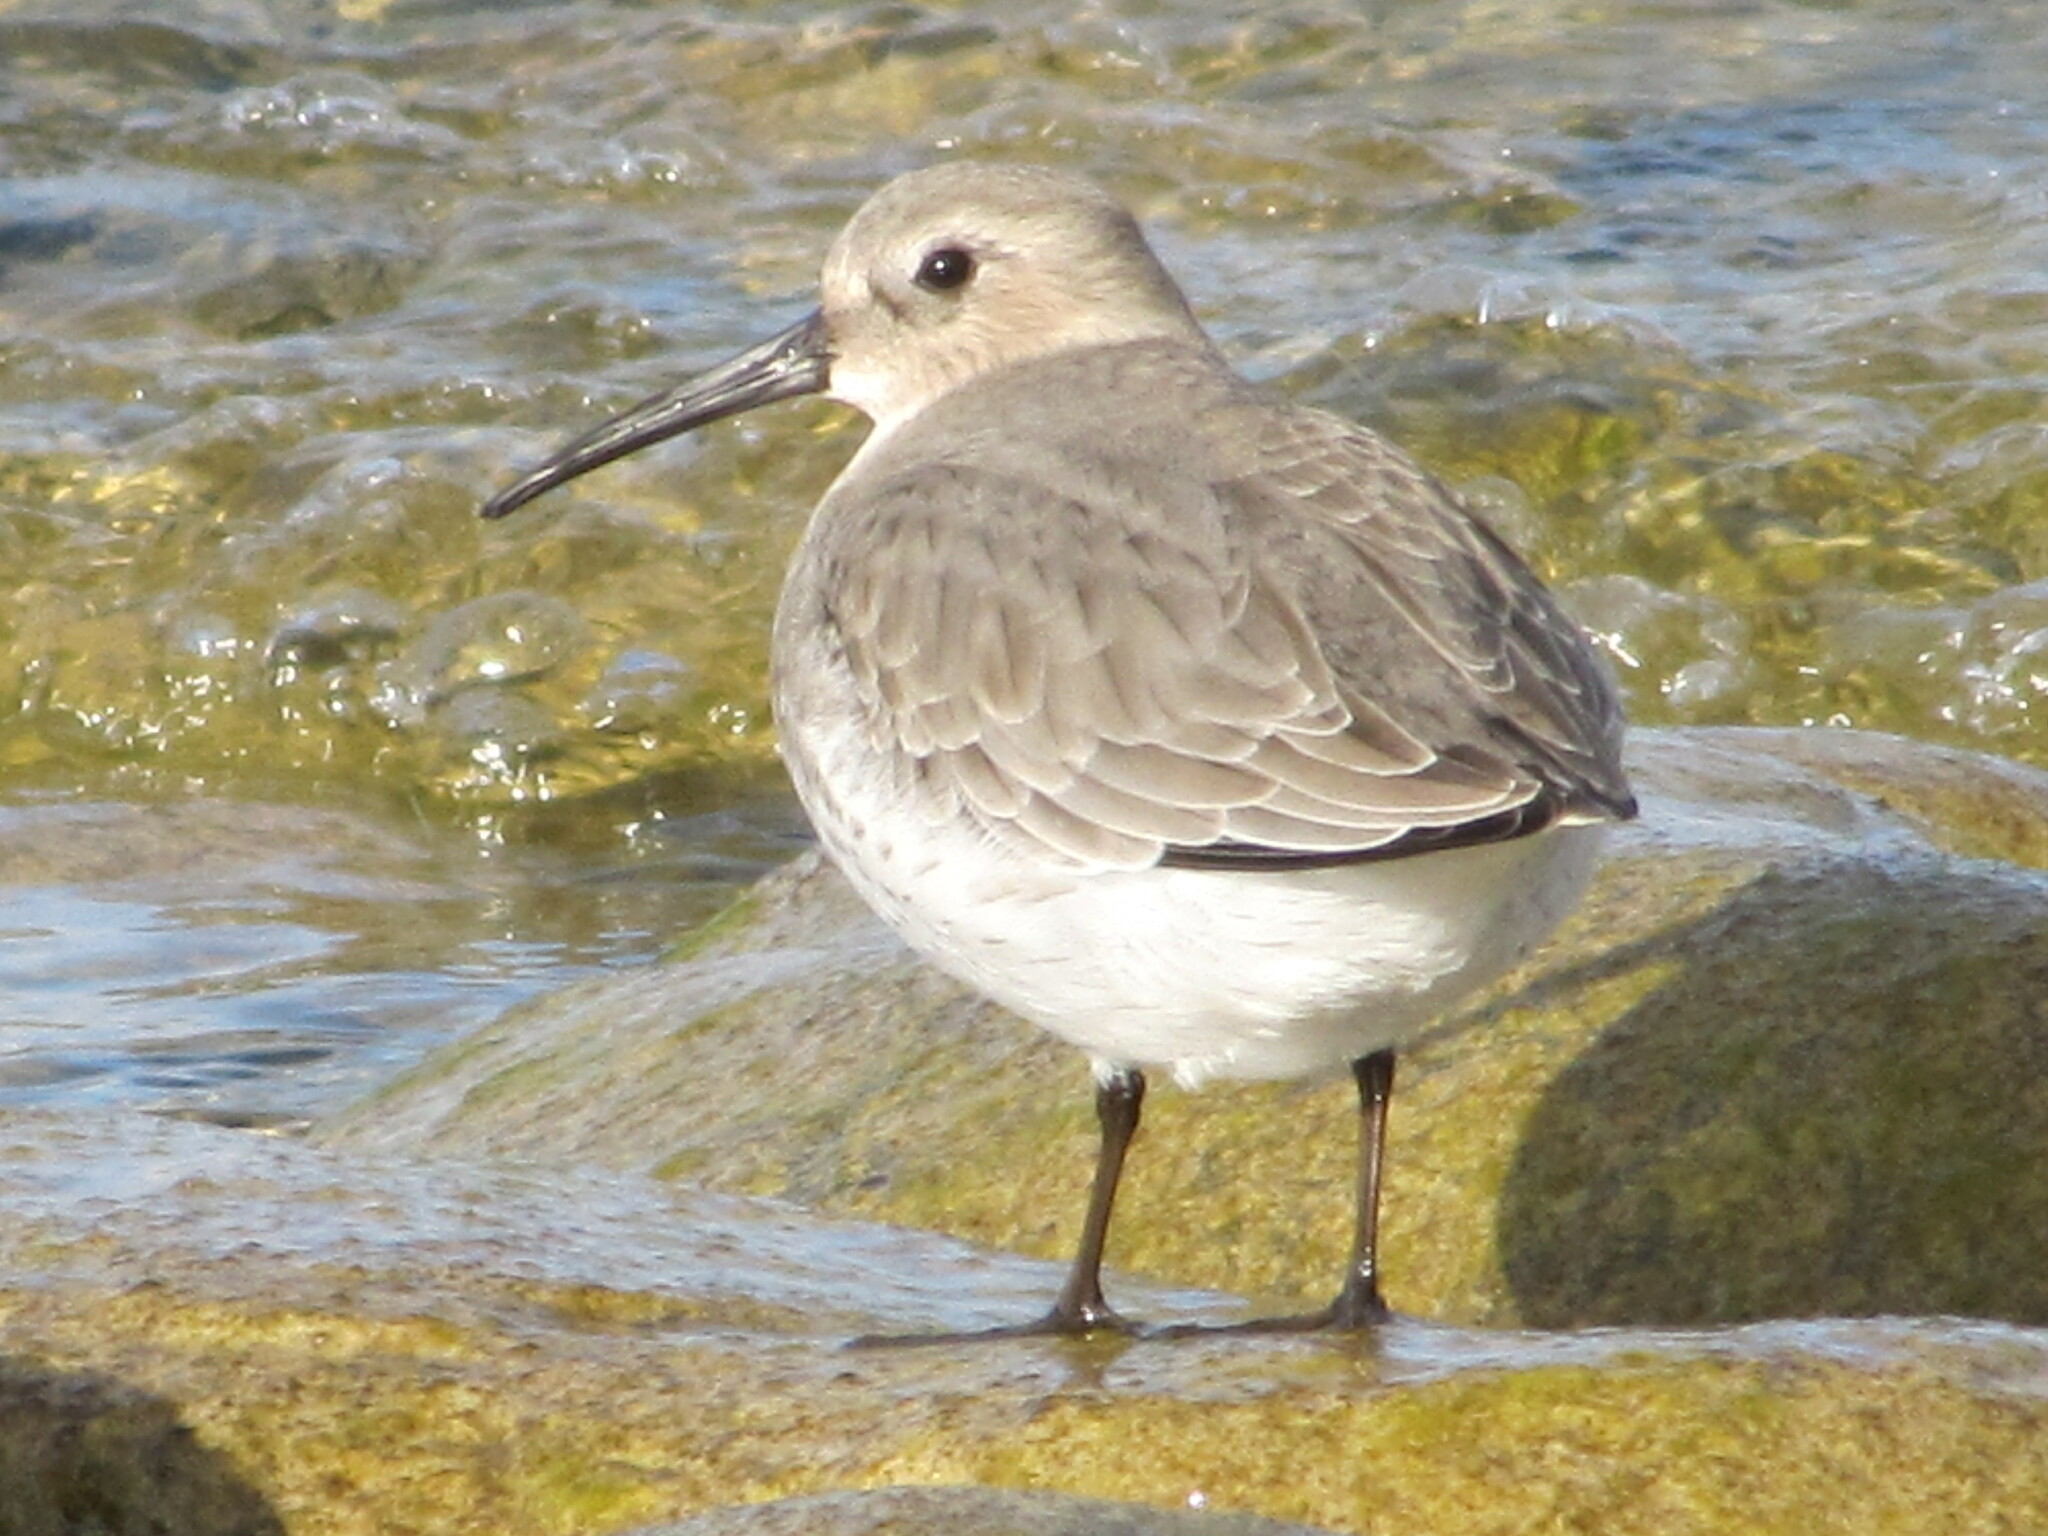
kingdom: Animalia
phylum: Chordata
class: Aves
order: Charadriiformes
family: Scolopacidae
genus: Calidris
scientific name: Calidris alpina
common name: Dunlin
